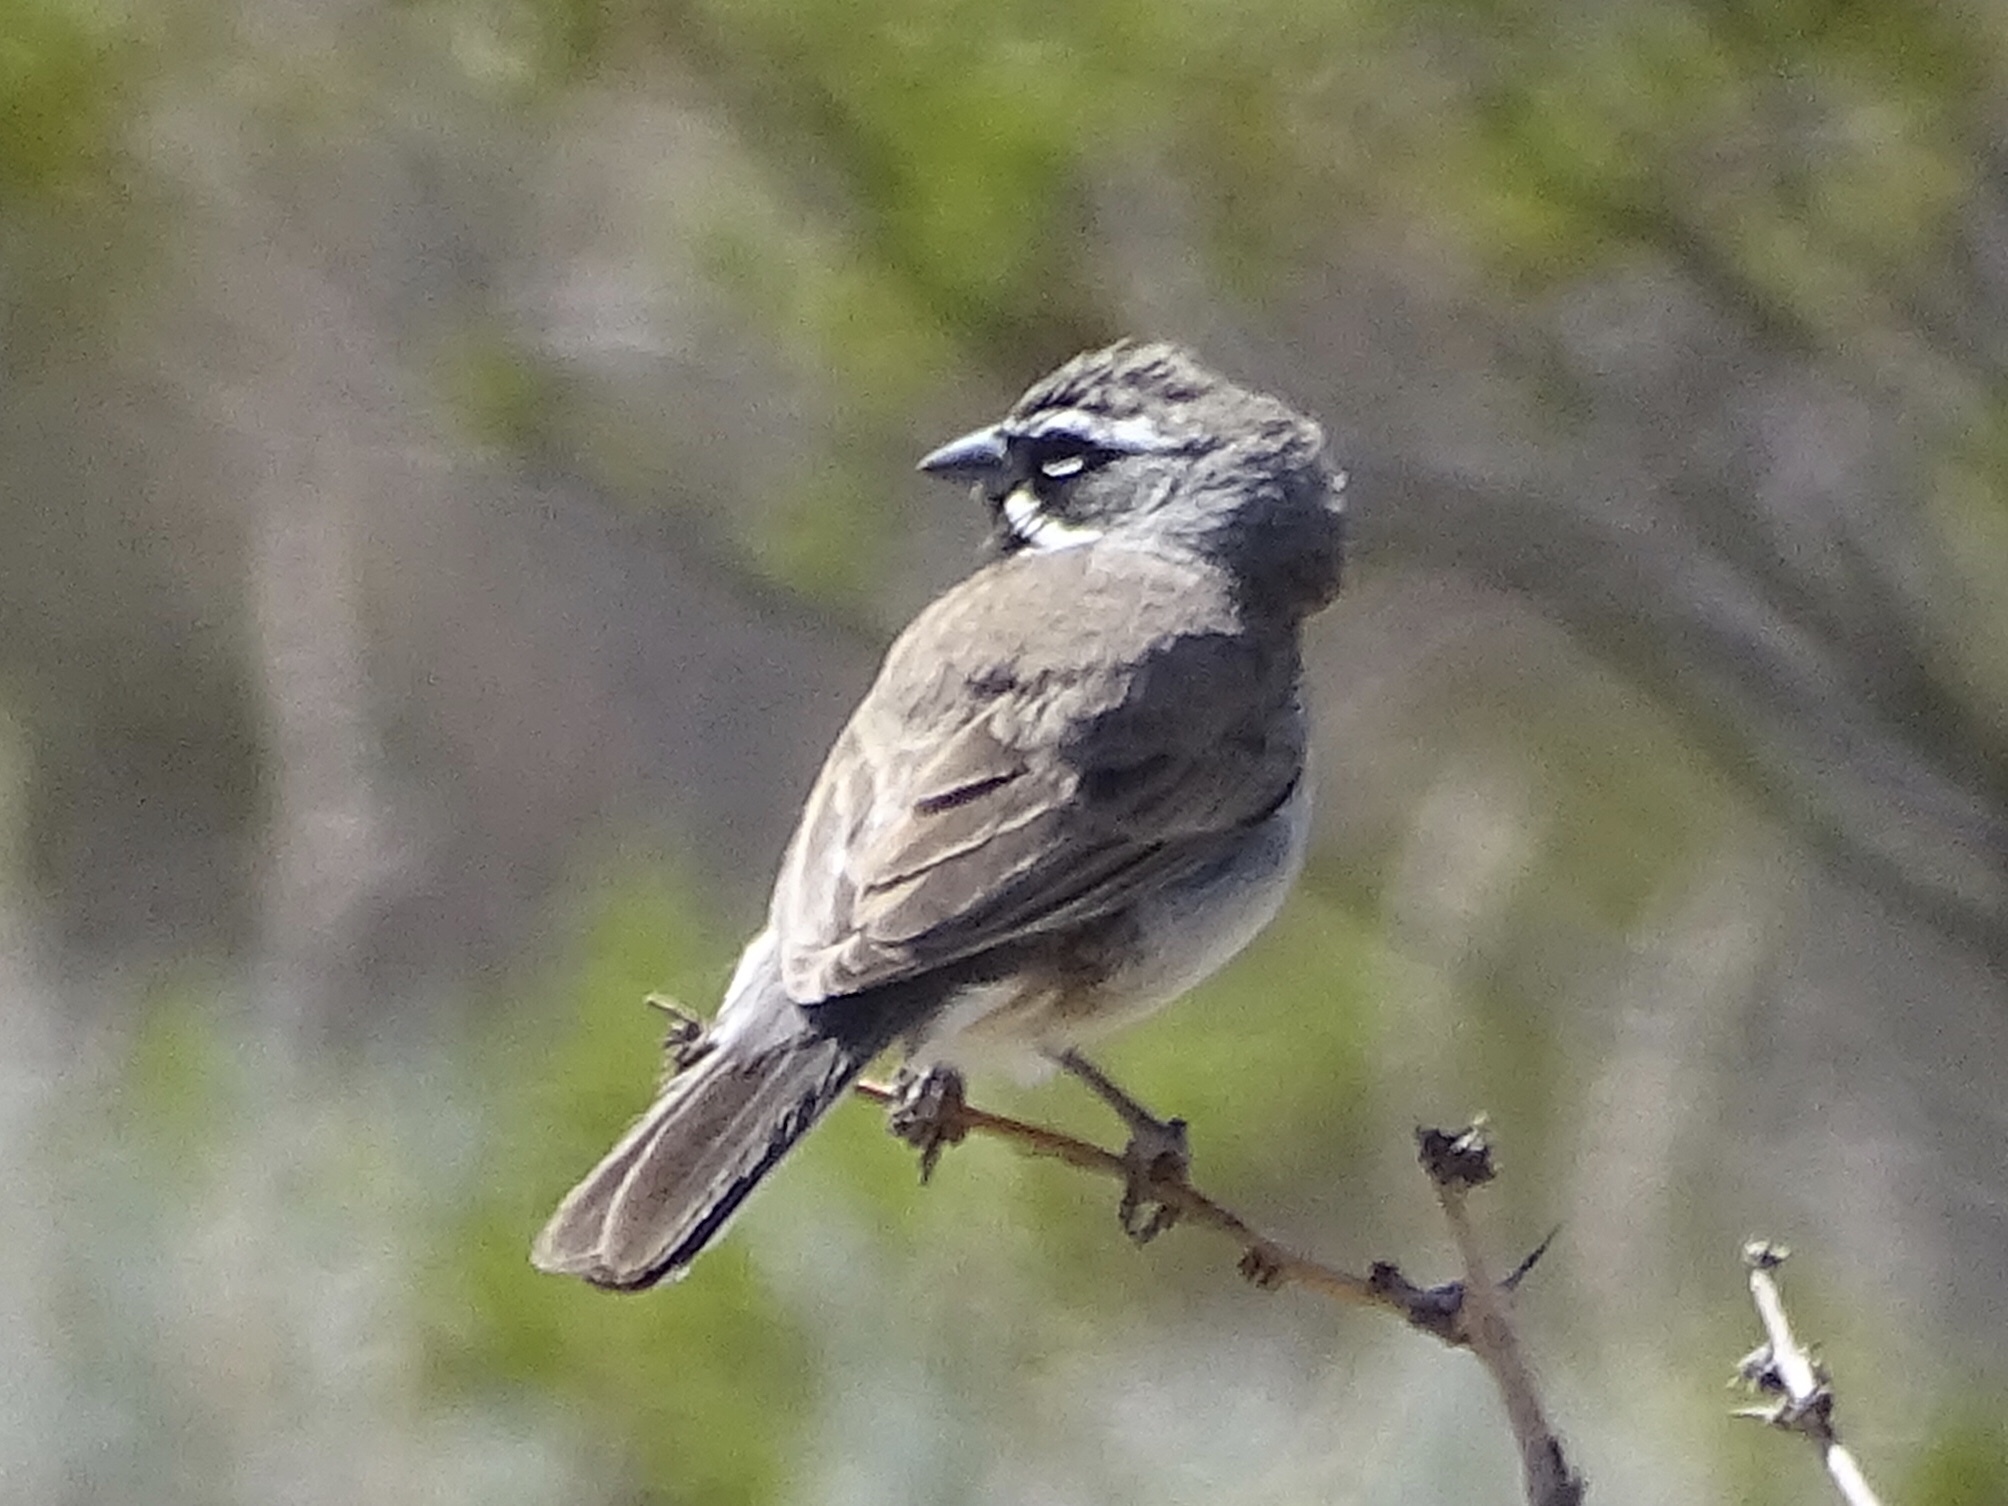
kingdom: Animalia
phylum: Chordata
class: Aves
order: Passeriformes
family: Passerellidae
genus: Amphispiza
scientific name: Amphispiza bilineata
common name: Black-throated sparrow
